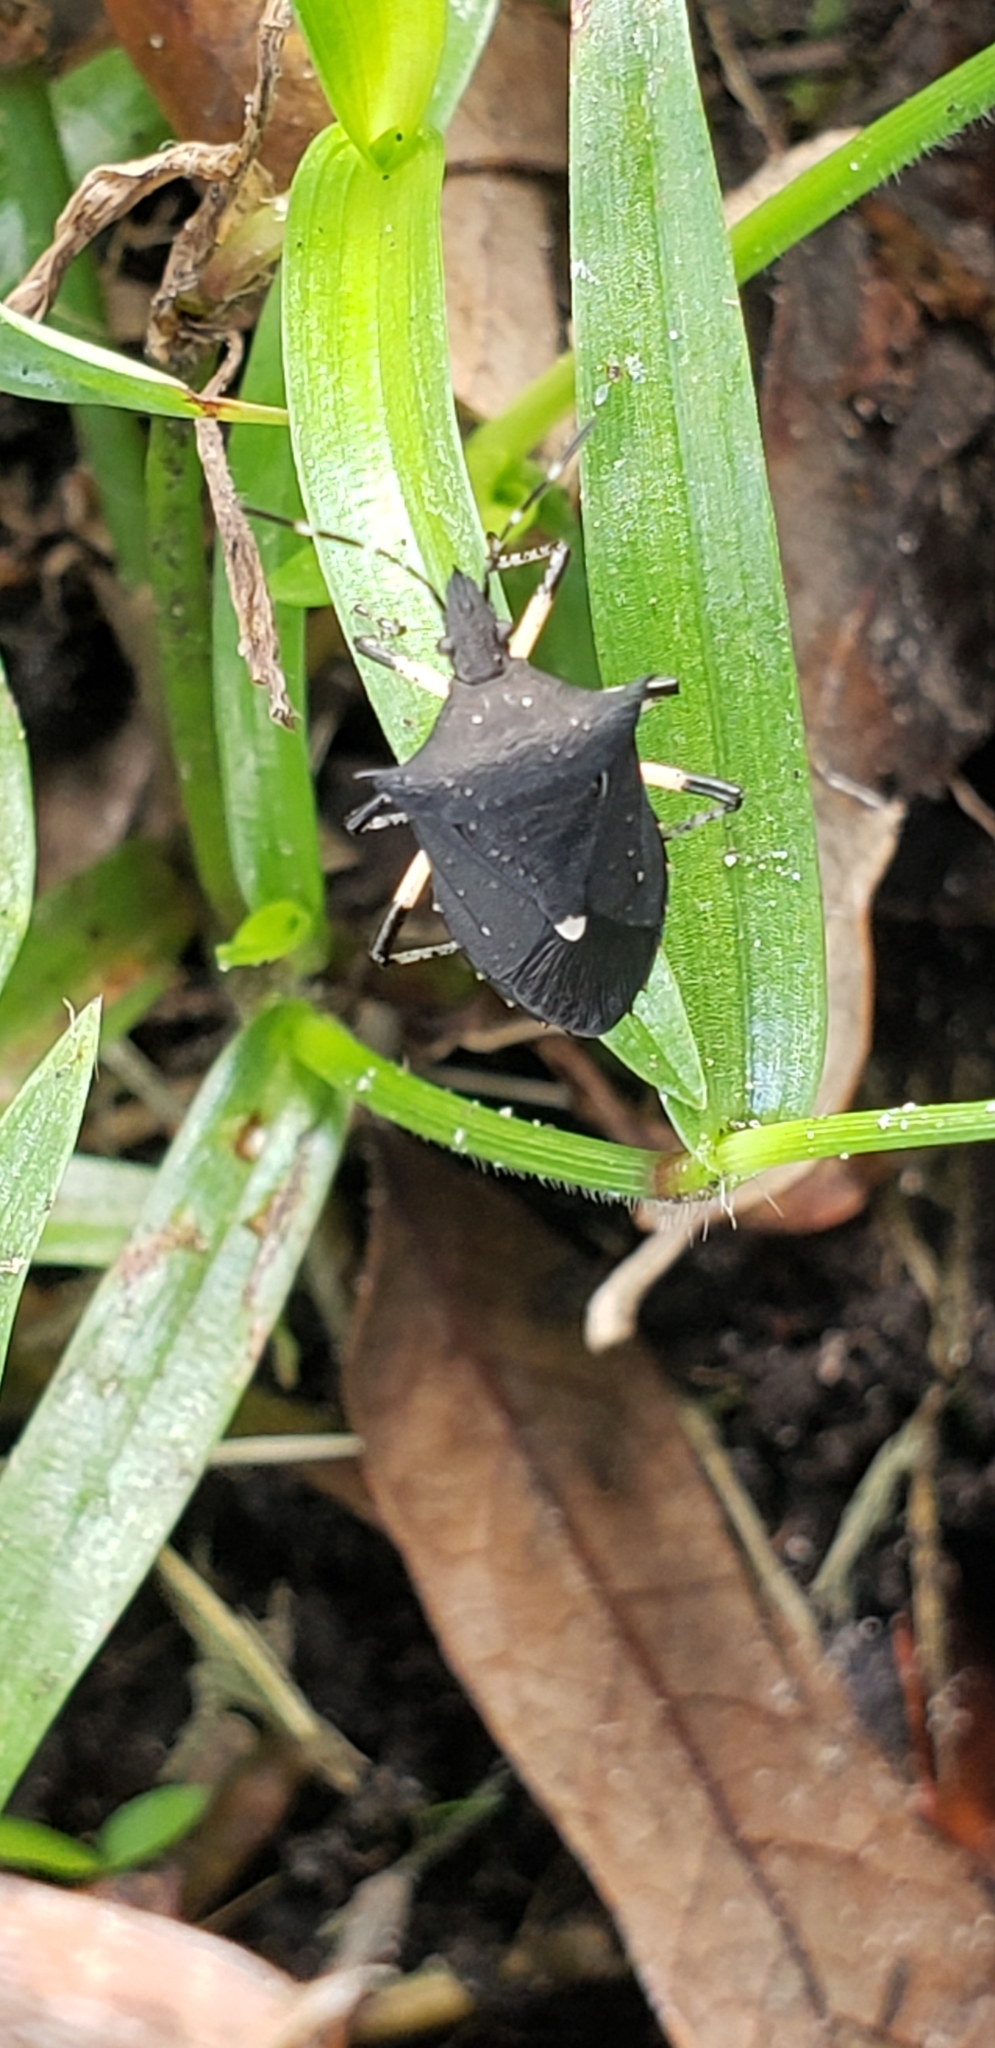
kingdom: Animalia
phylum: Arthropoda
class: Insecta
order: Hemiptera
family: Pentatomidae
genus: Proxys
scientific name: Proxys punctulatus
